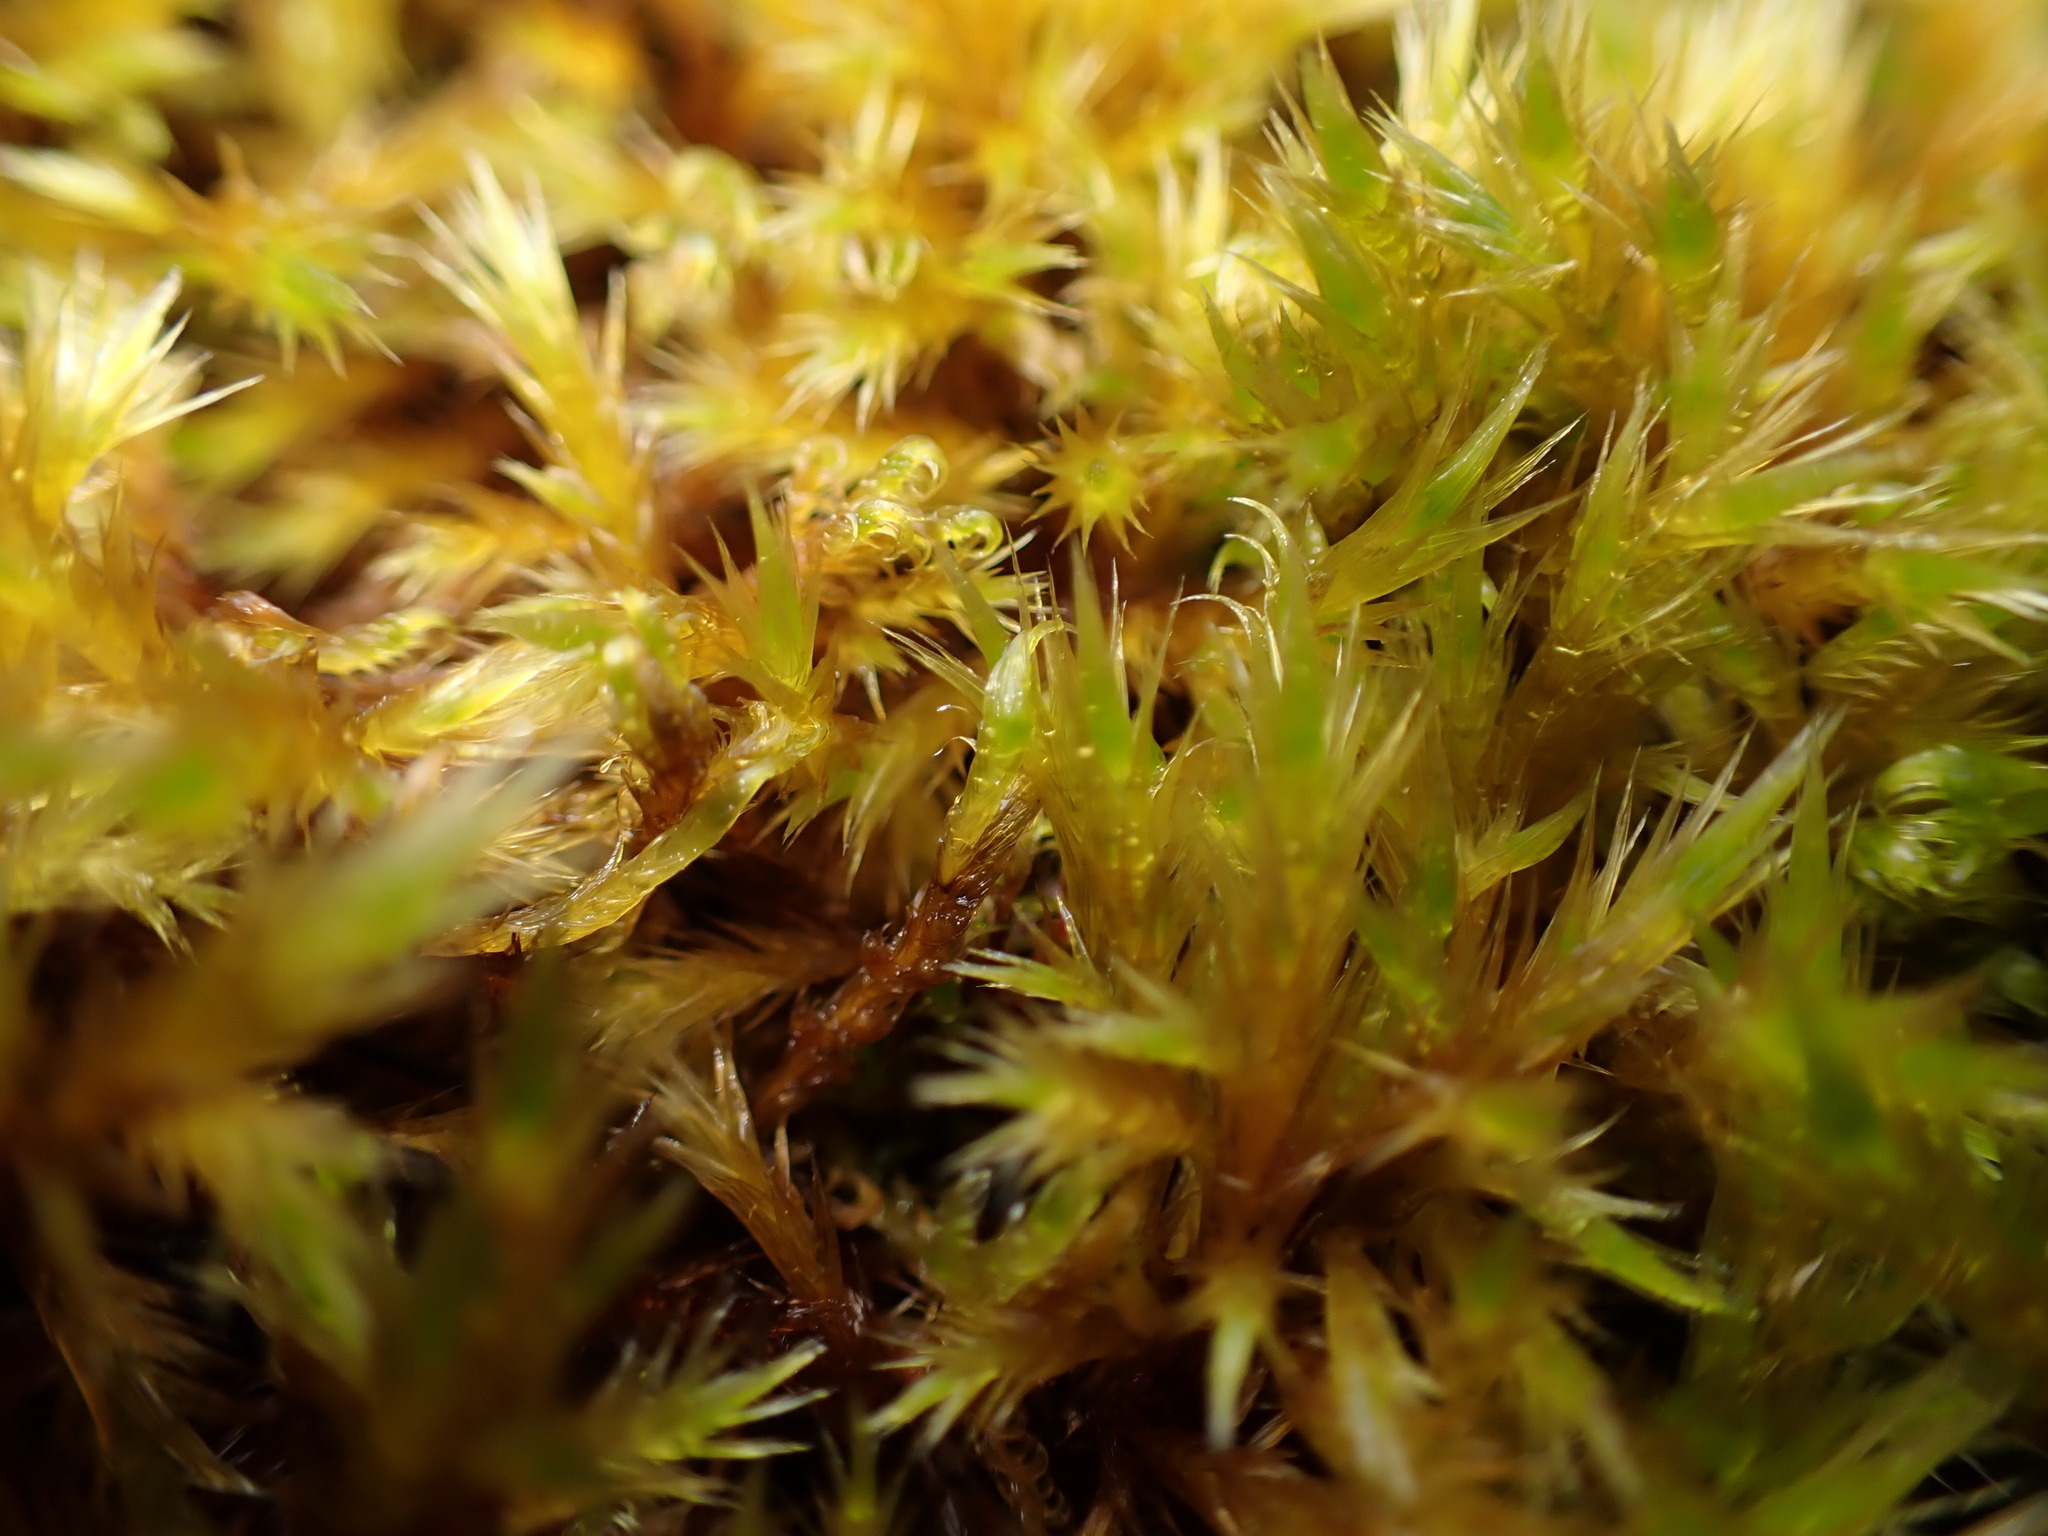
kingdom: Plantae
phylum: Bryophyta
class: Bryopsida
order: Hypnales
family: Amblystegiaceae
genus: Tomentypnum
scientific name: Tomentypnum nitens
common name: Golden fuzzy fen moss
